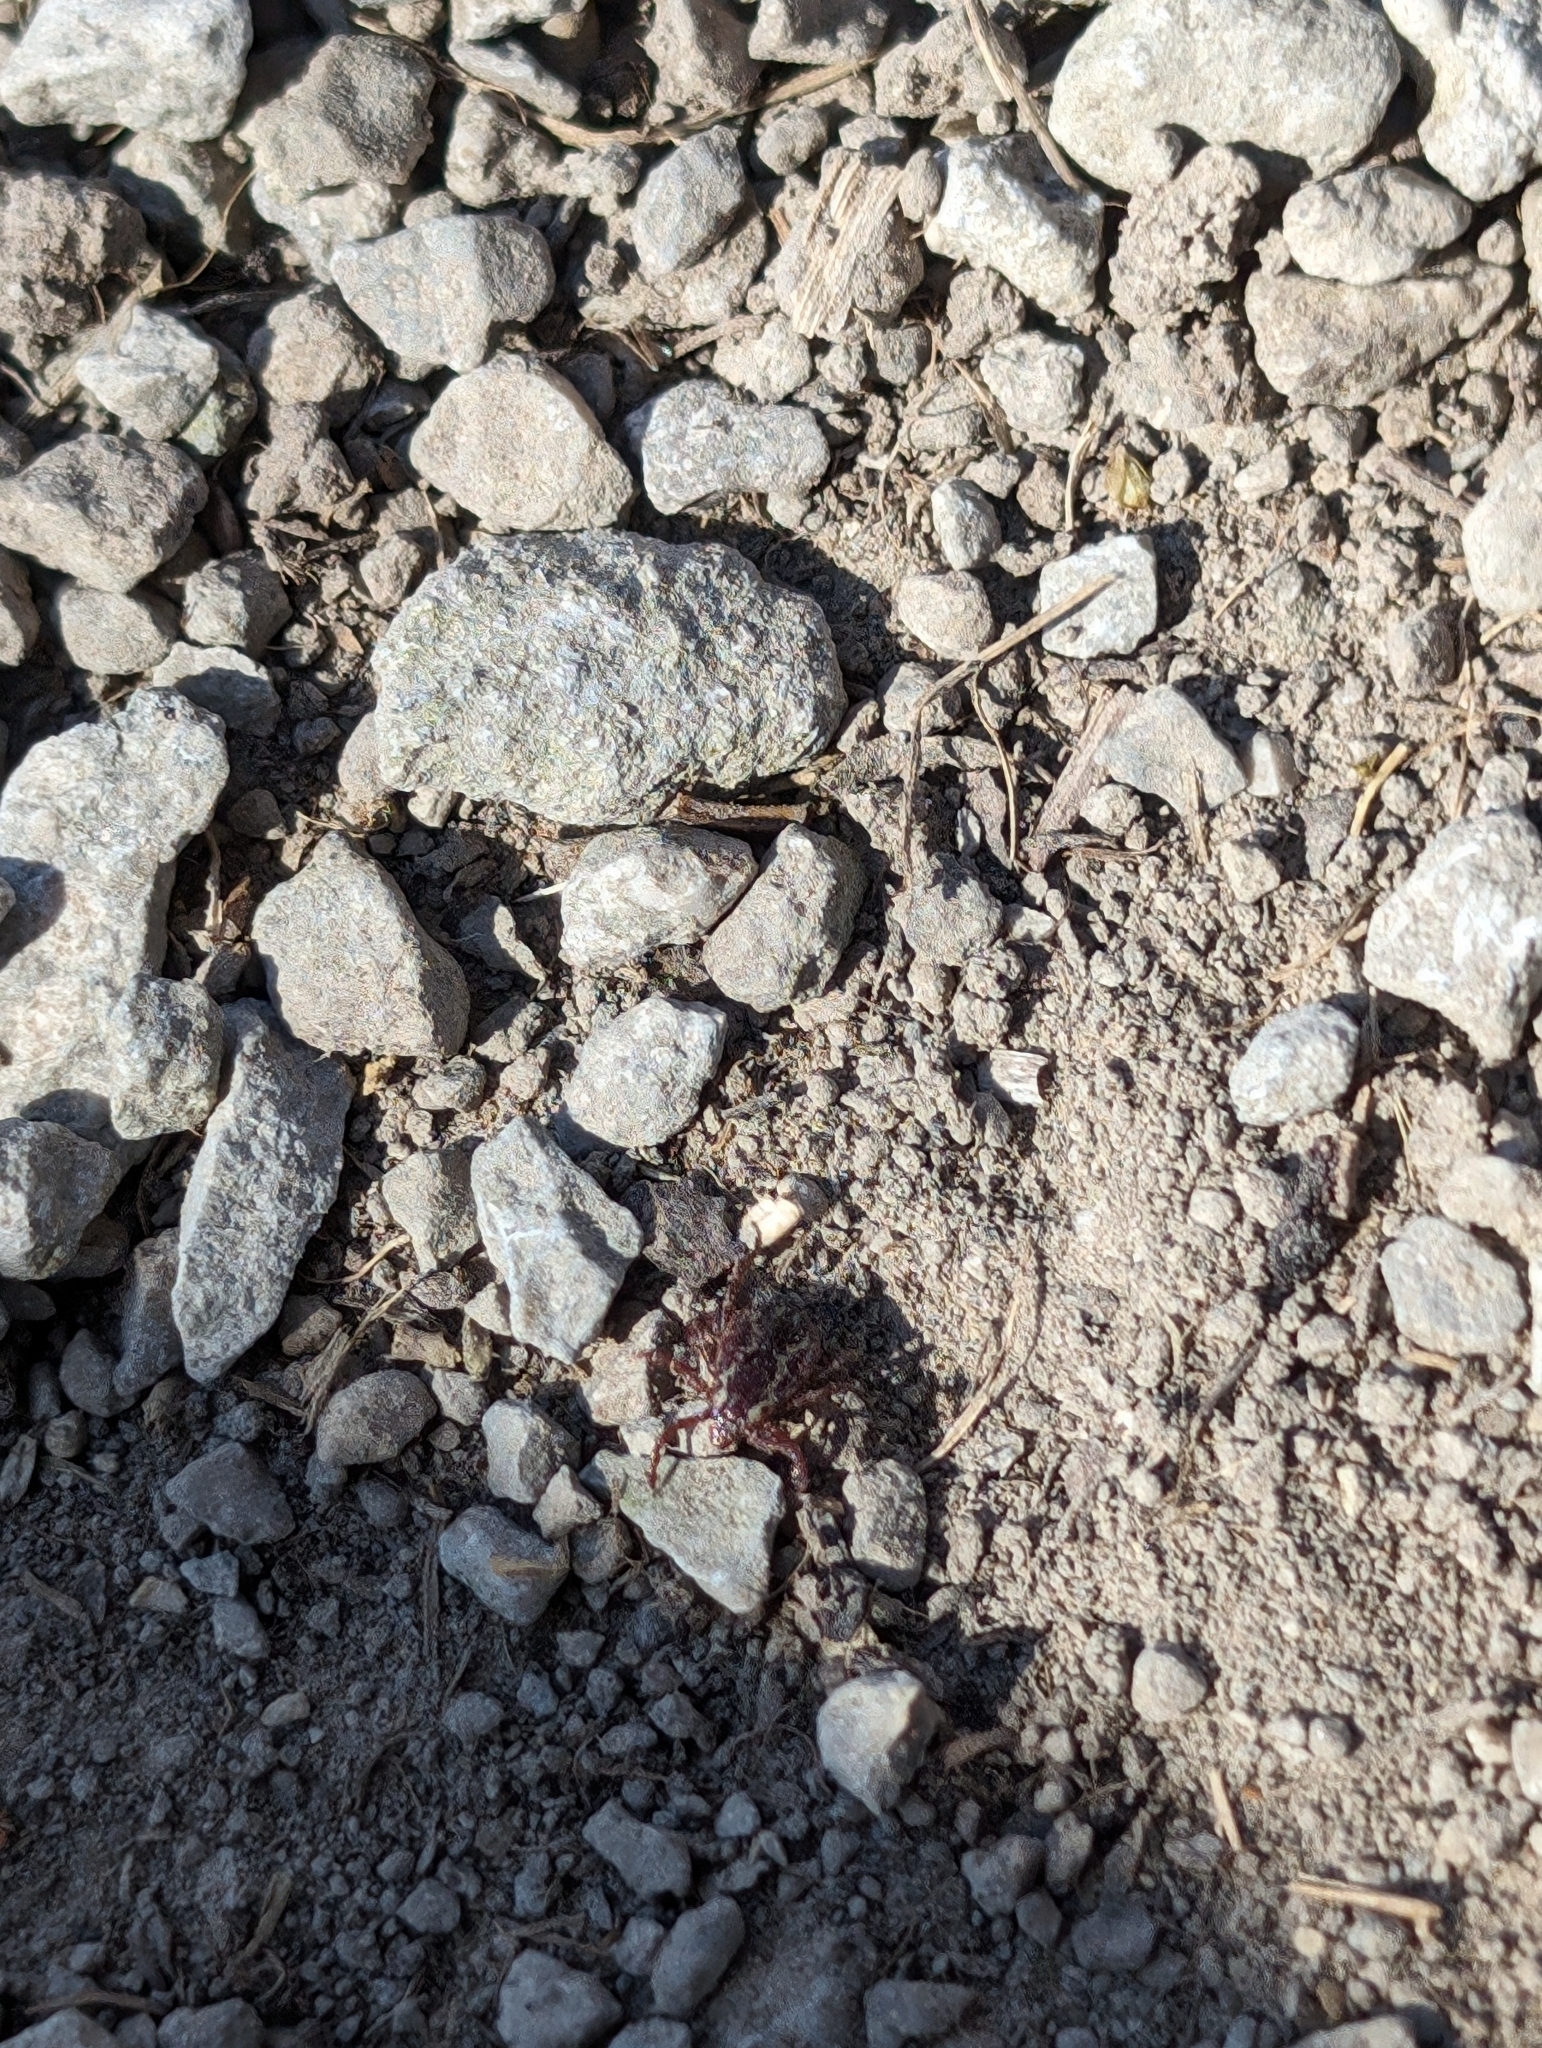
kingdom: Animalia
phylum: Arthropoda
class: Arachnida
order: Ixodida
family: Ixodidae
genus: Dermacentor
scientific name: Dermacentor variabilis
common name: American dog tick
